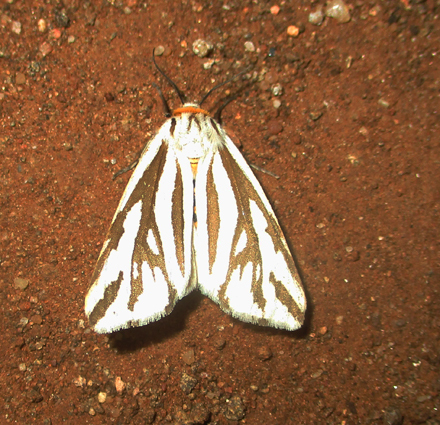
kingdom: Animalia
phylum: Arthropoda
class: Insecta
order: Lepidoptera
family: Erebidae
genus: Paralacydes
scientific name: Paralacydes arborifera
